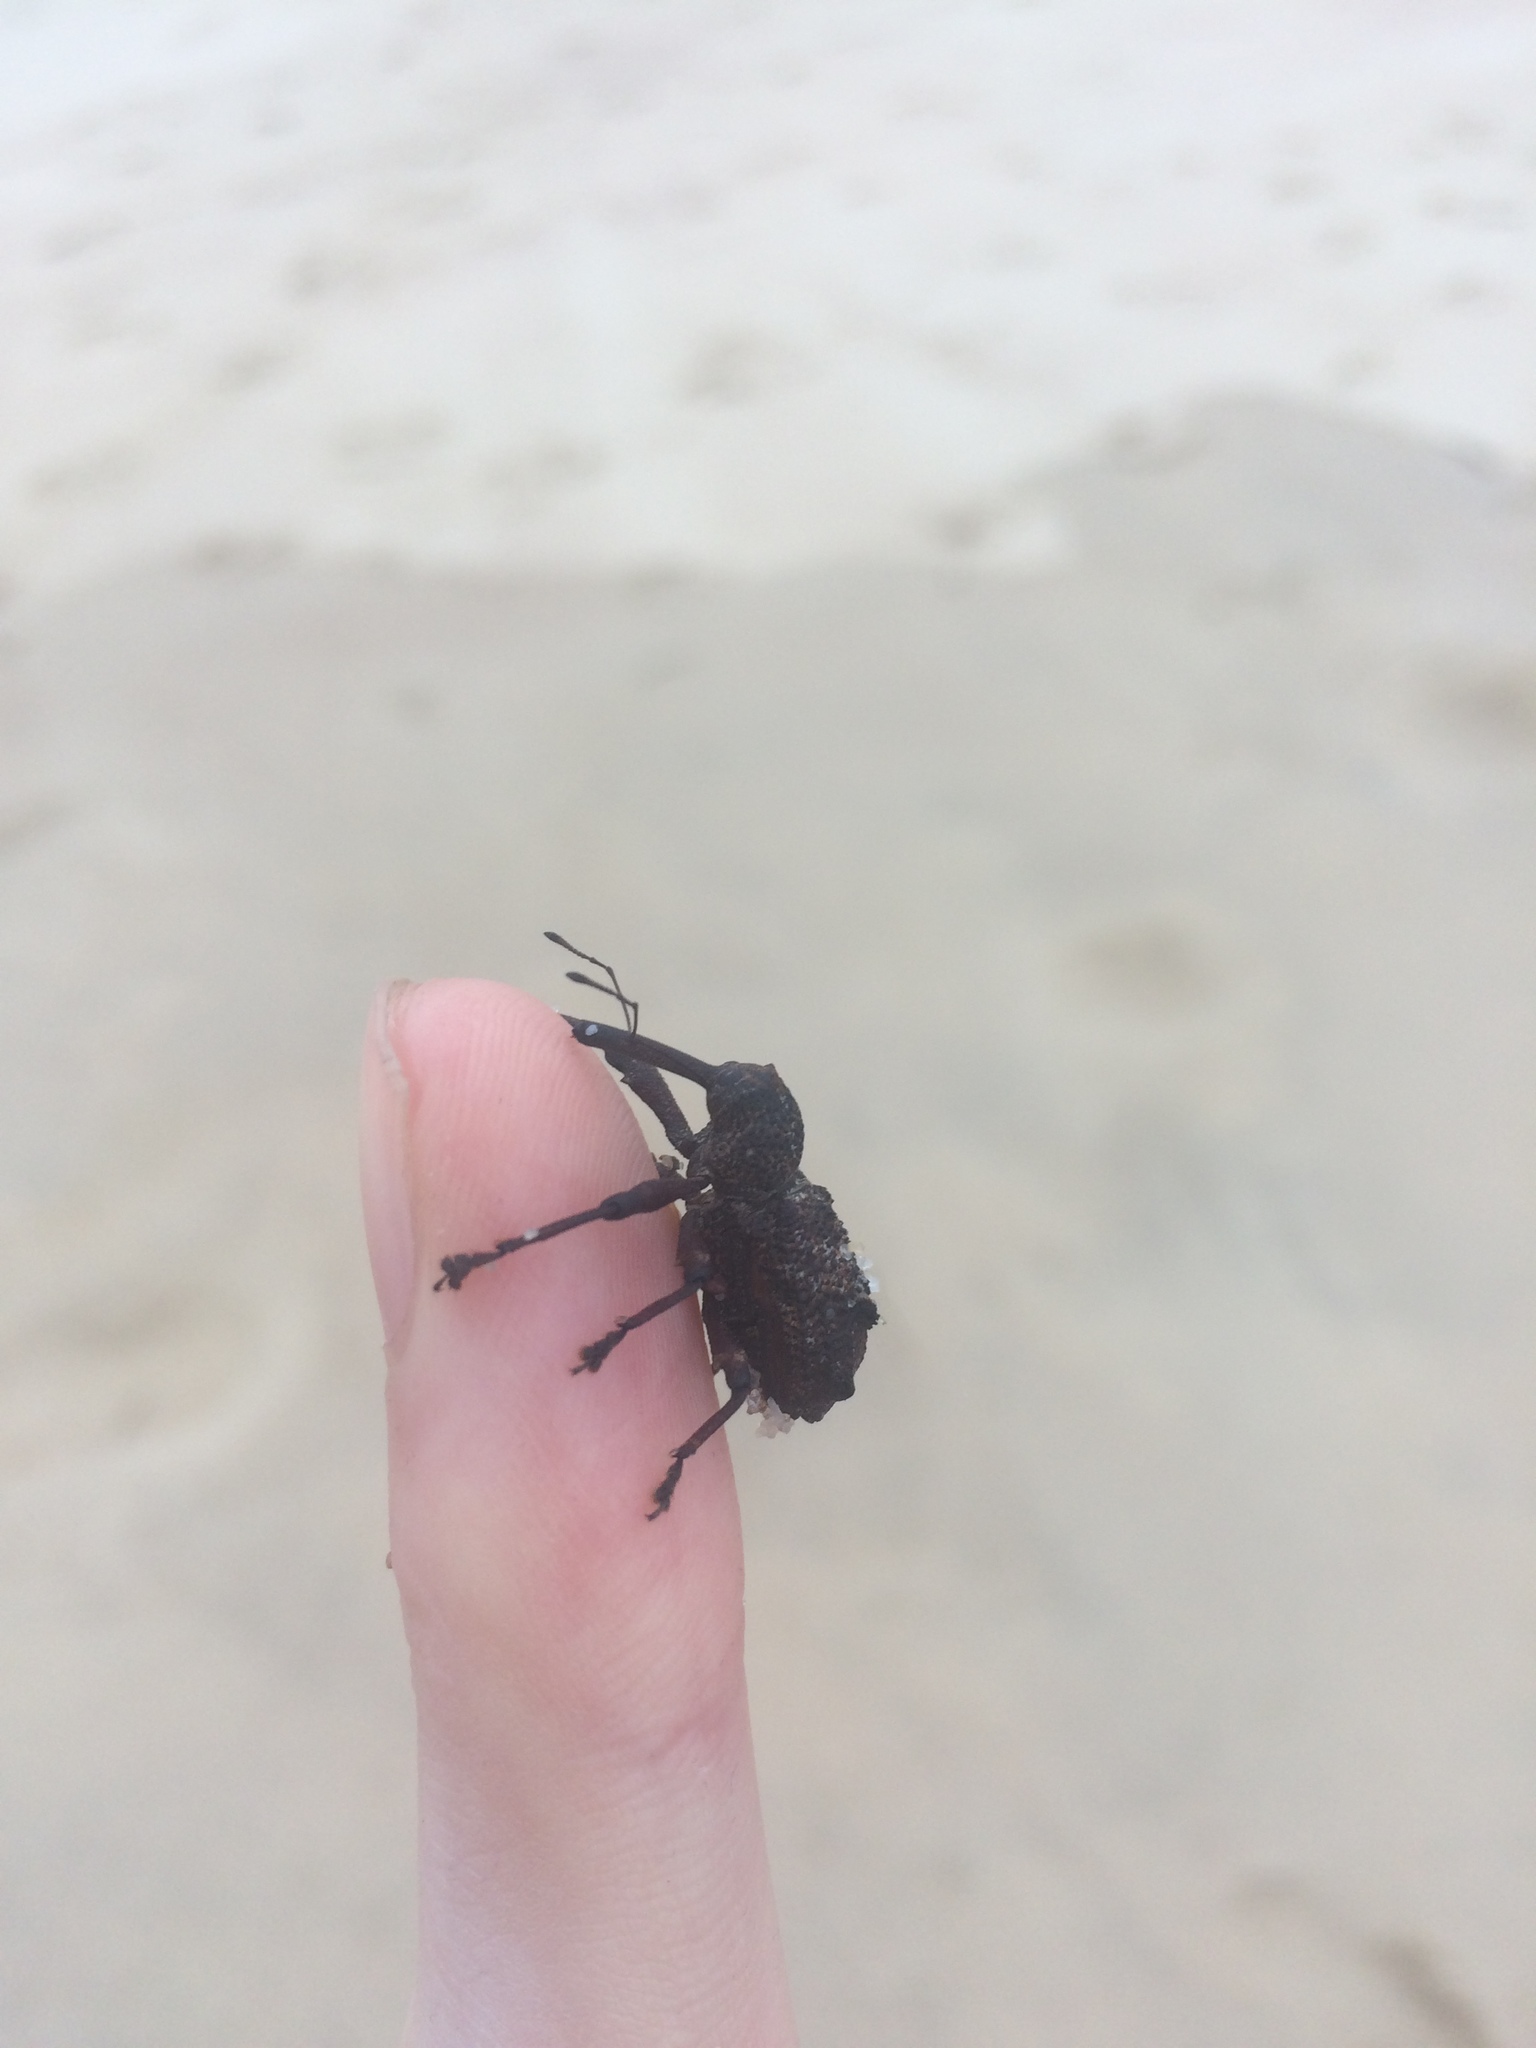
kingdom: Animalia
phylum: Arthropoda
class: Insecta
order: Coleoptera
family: Curculionidae
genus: Orthorhinus
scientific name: Orthorhinus cylindrirostris
